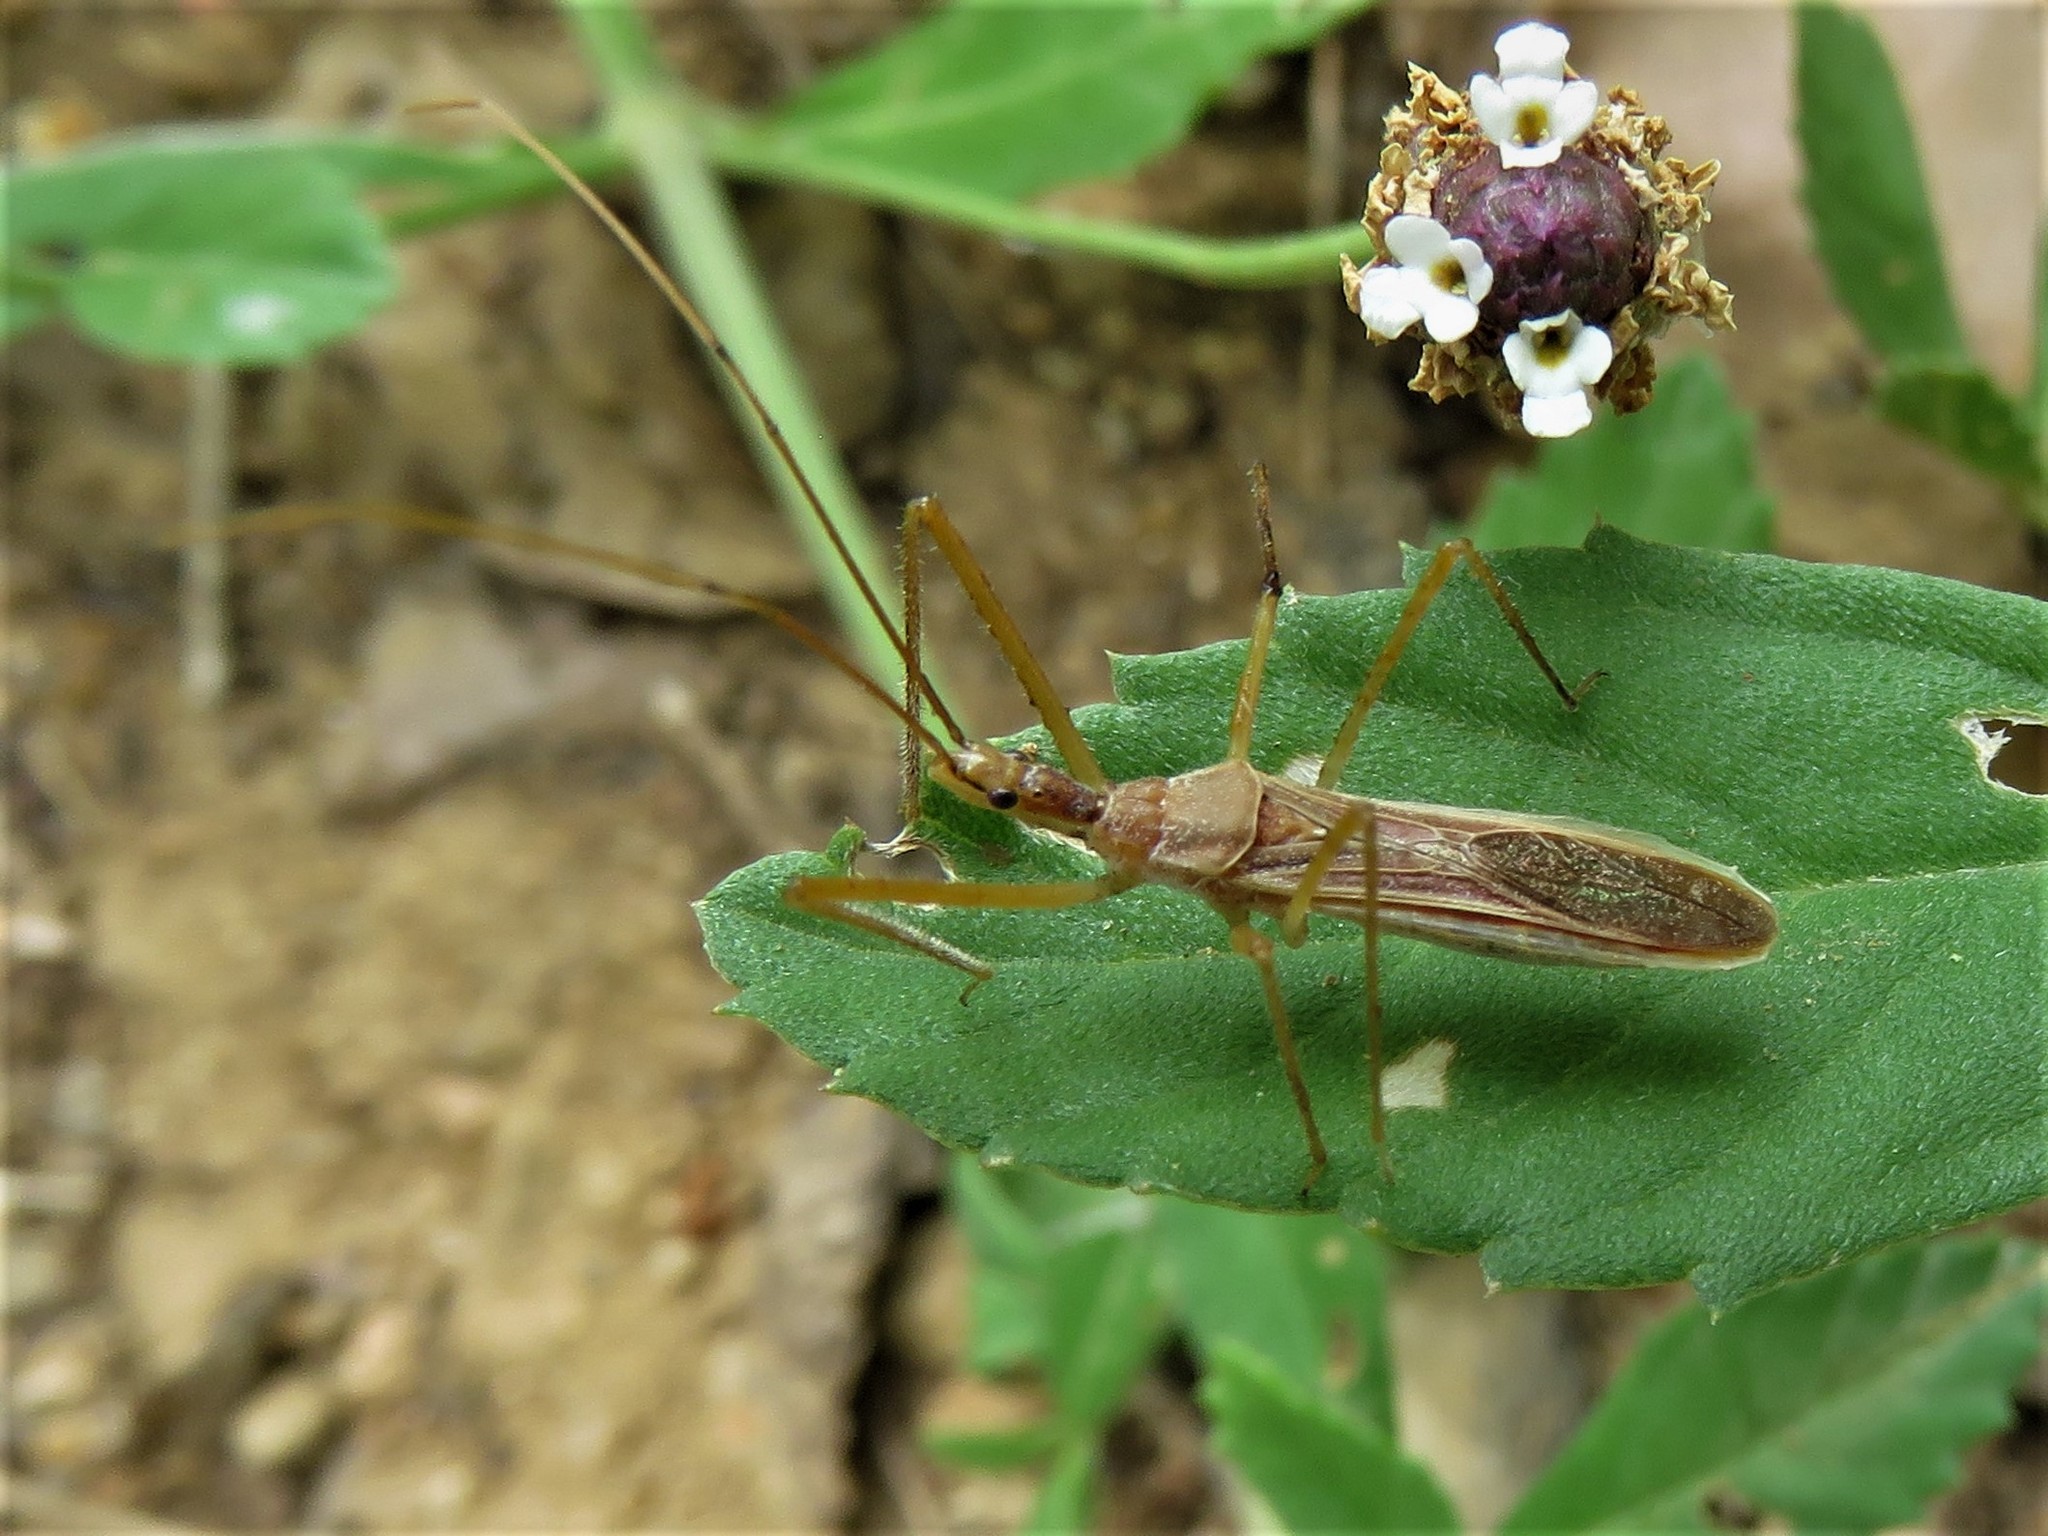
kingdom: Animalia
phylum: Arthropoda
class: Insecta
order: Hemiptera
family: Reduviidae
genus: Zelus
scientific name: Zelus cervicalis
